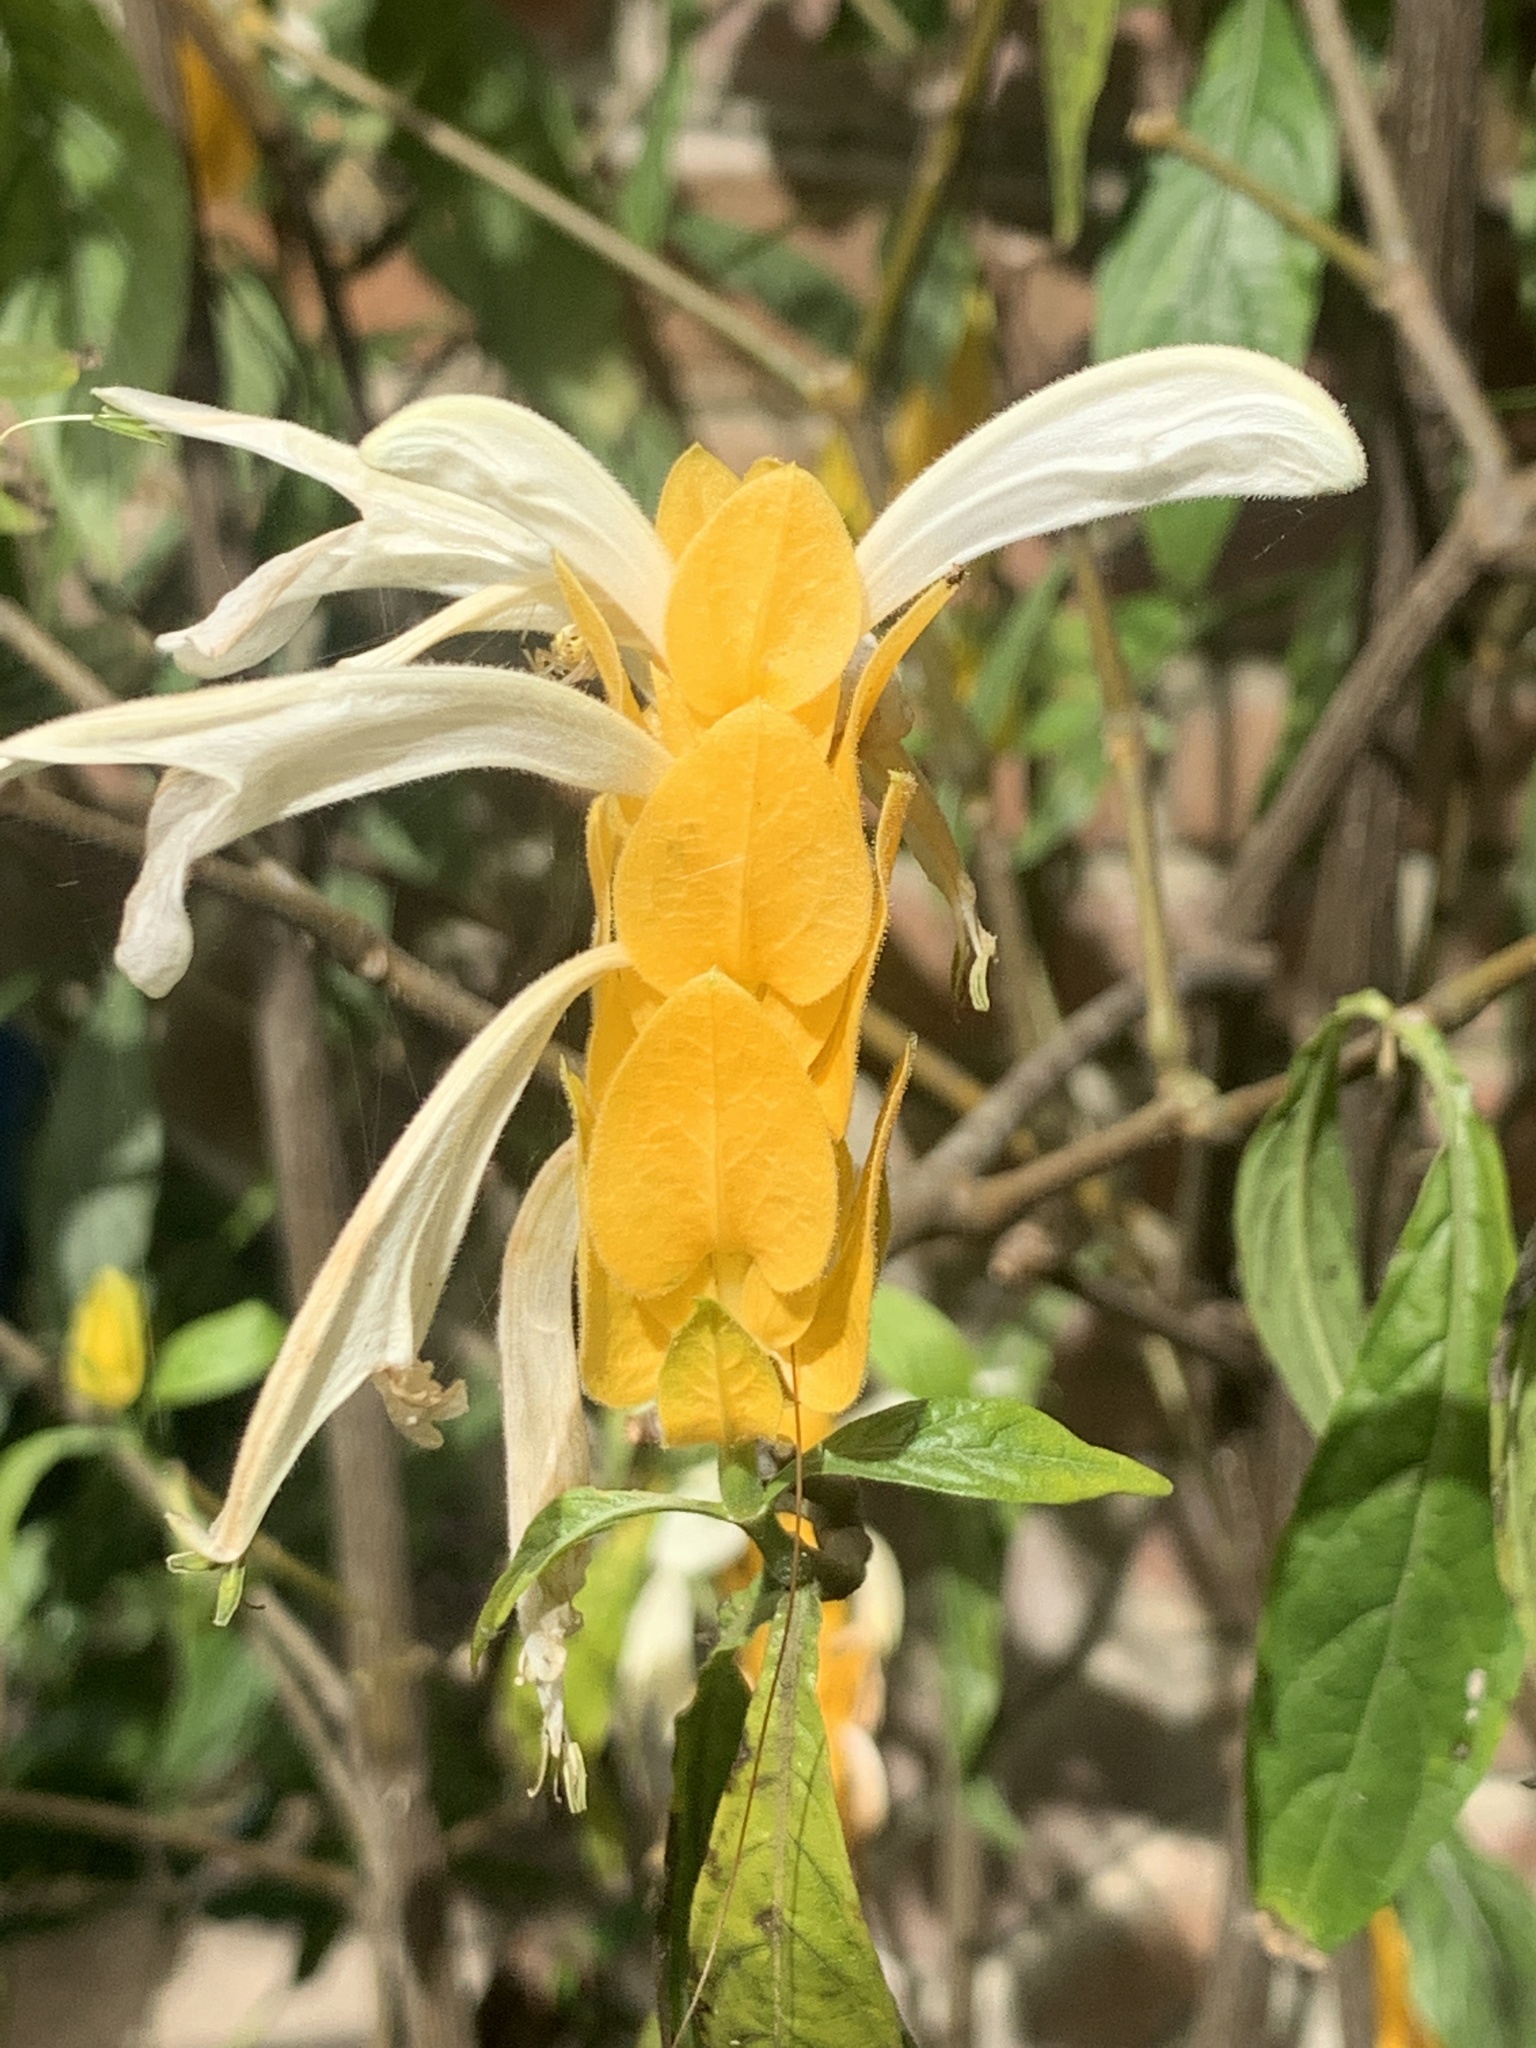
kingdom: Plantae
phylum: Tracheophyta
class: Magnoliopsida
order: Lamiales
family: Acanthaceae
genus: Pachystachys
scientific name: Pachystachys lutea
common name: Golden shrimp-plant
